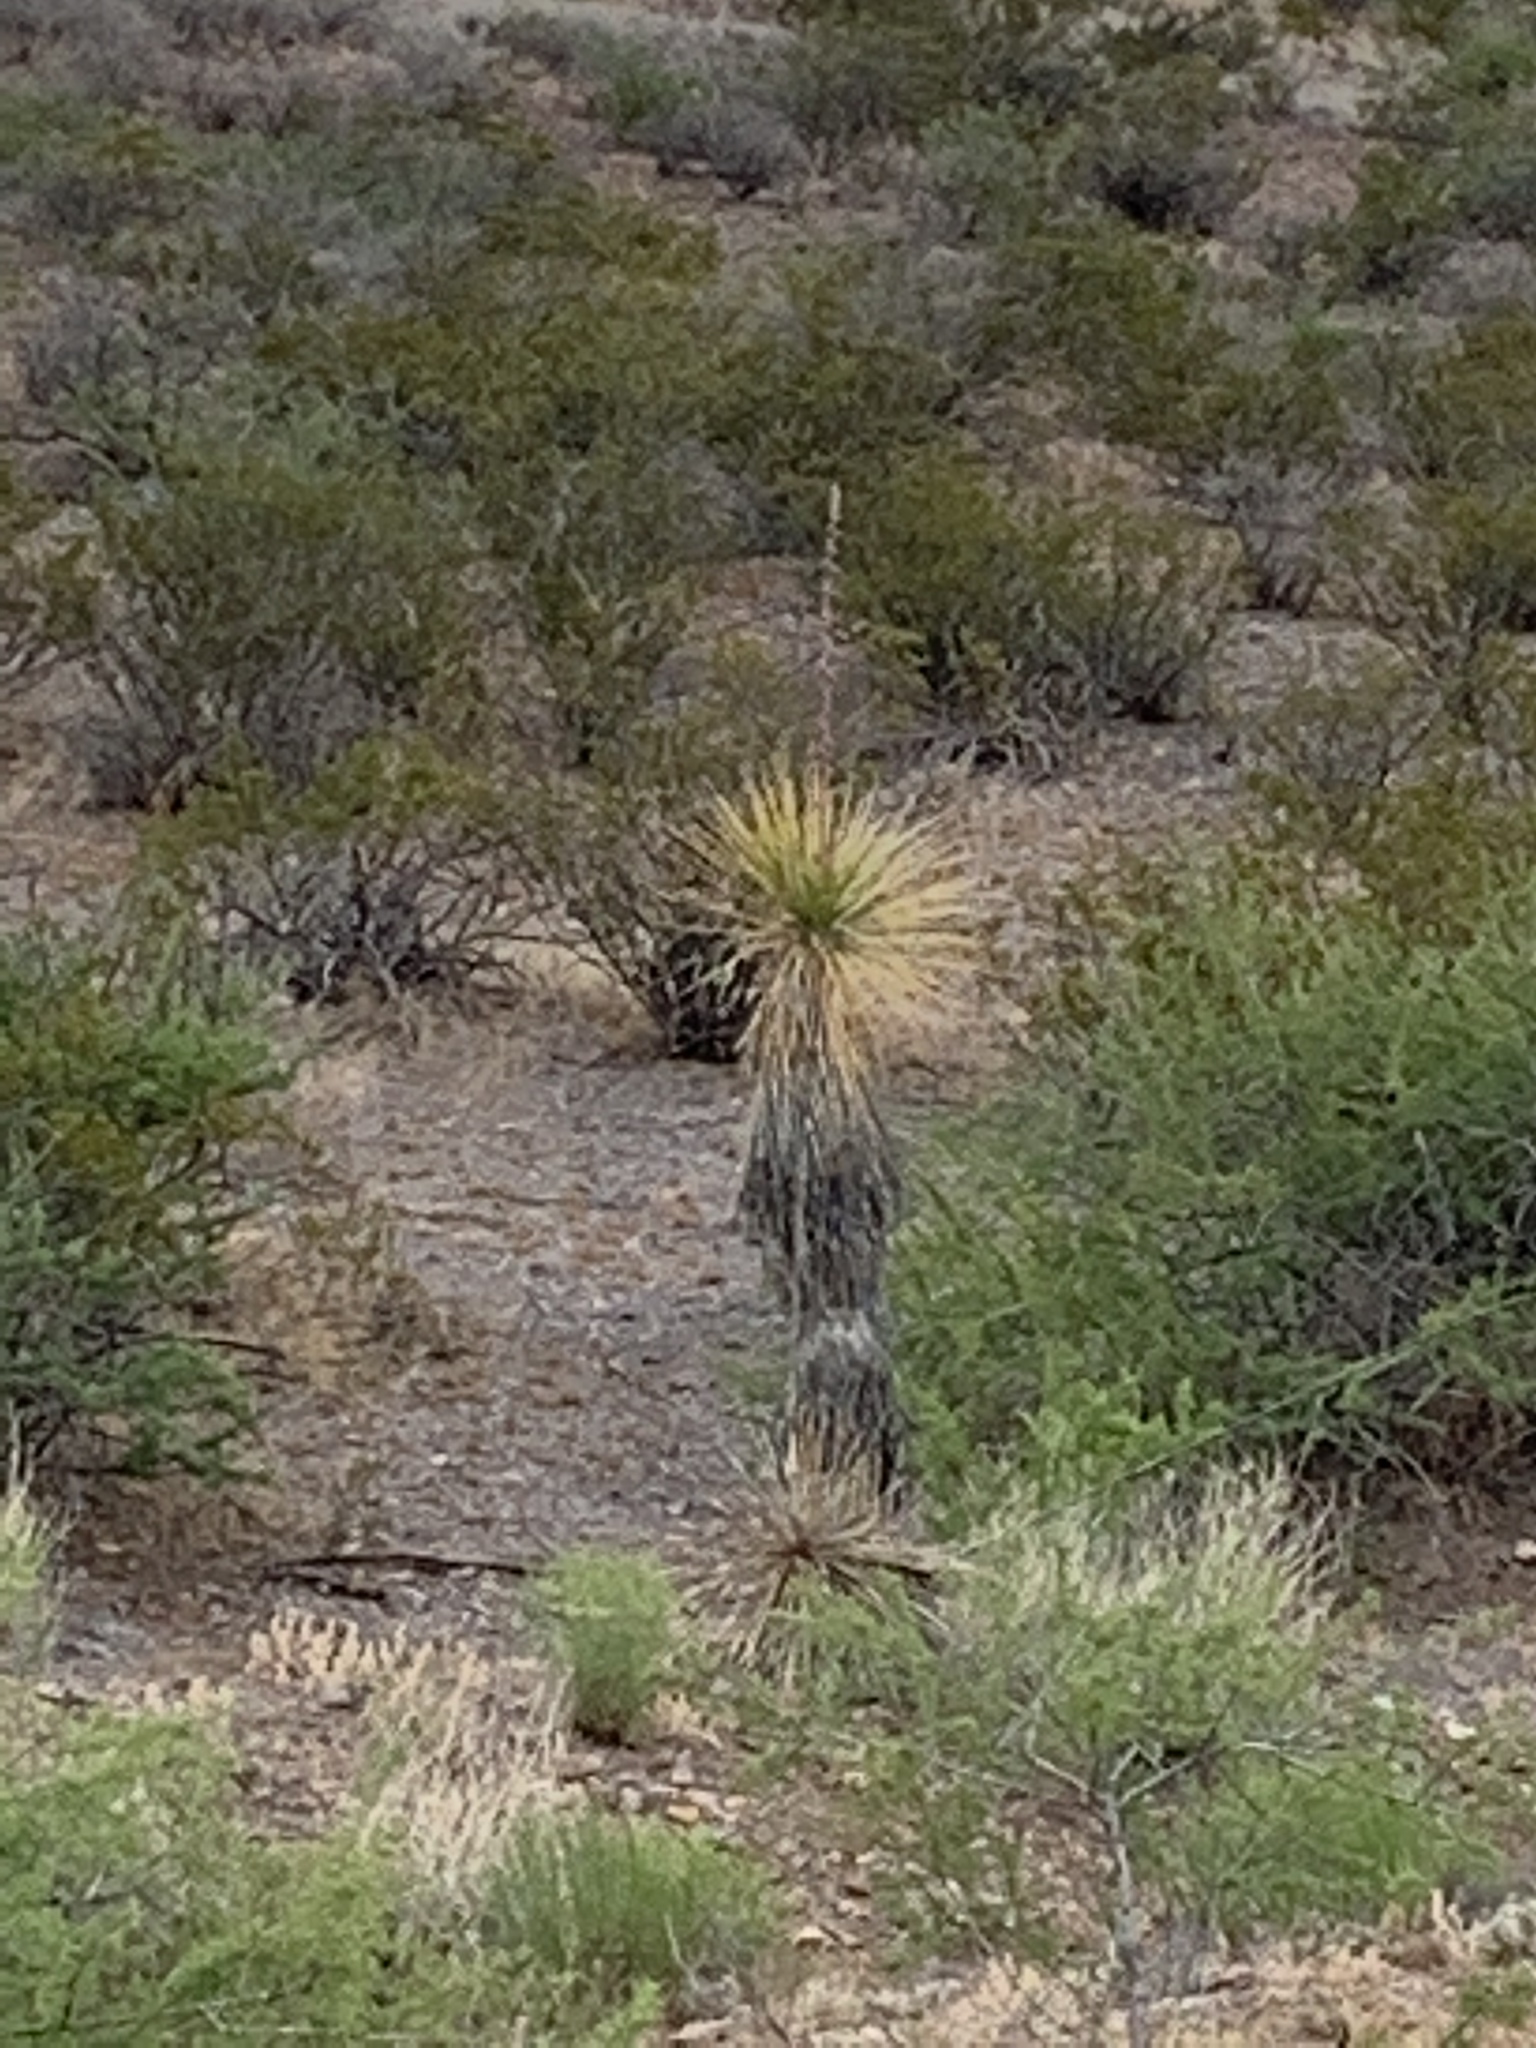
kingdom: Plantae
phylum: Tracheophyta
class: Liliopsida
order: Asparagales
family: Asparagaceae
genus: Yucca
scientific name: Yucca elata
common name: Palmella
